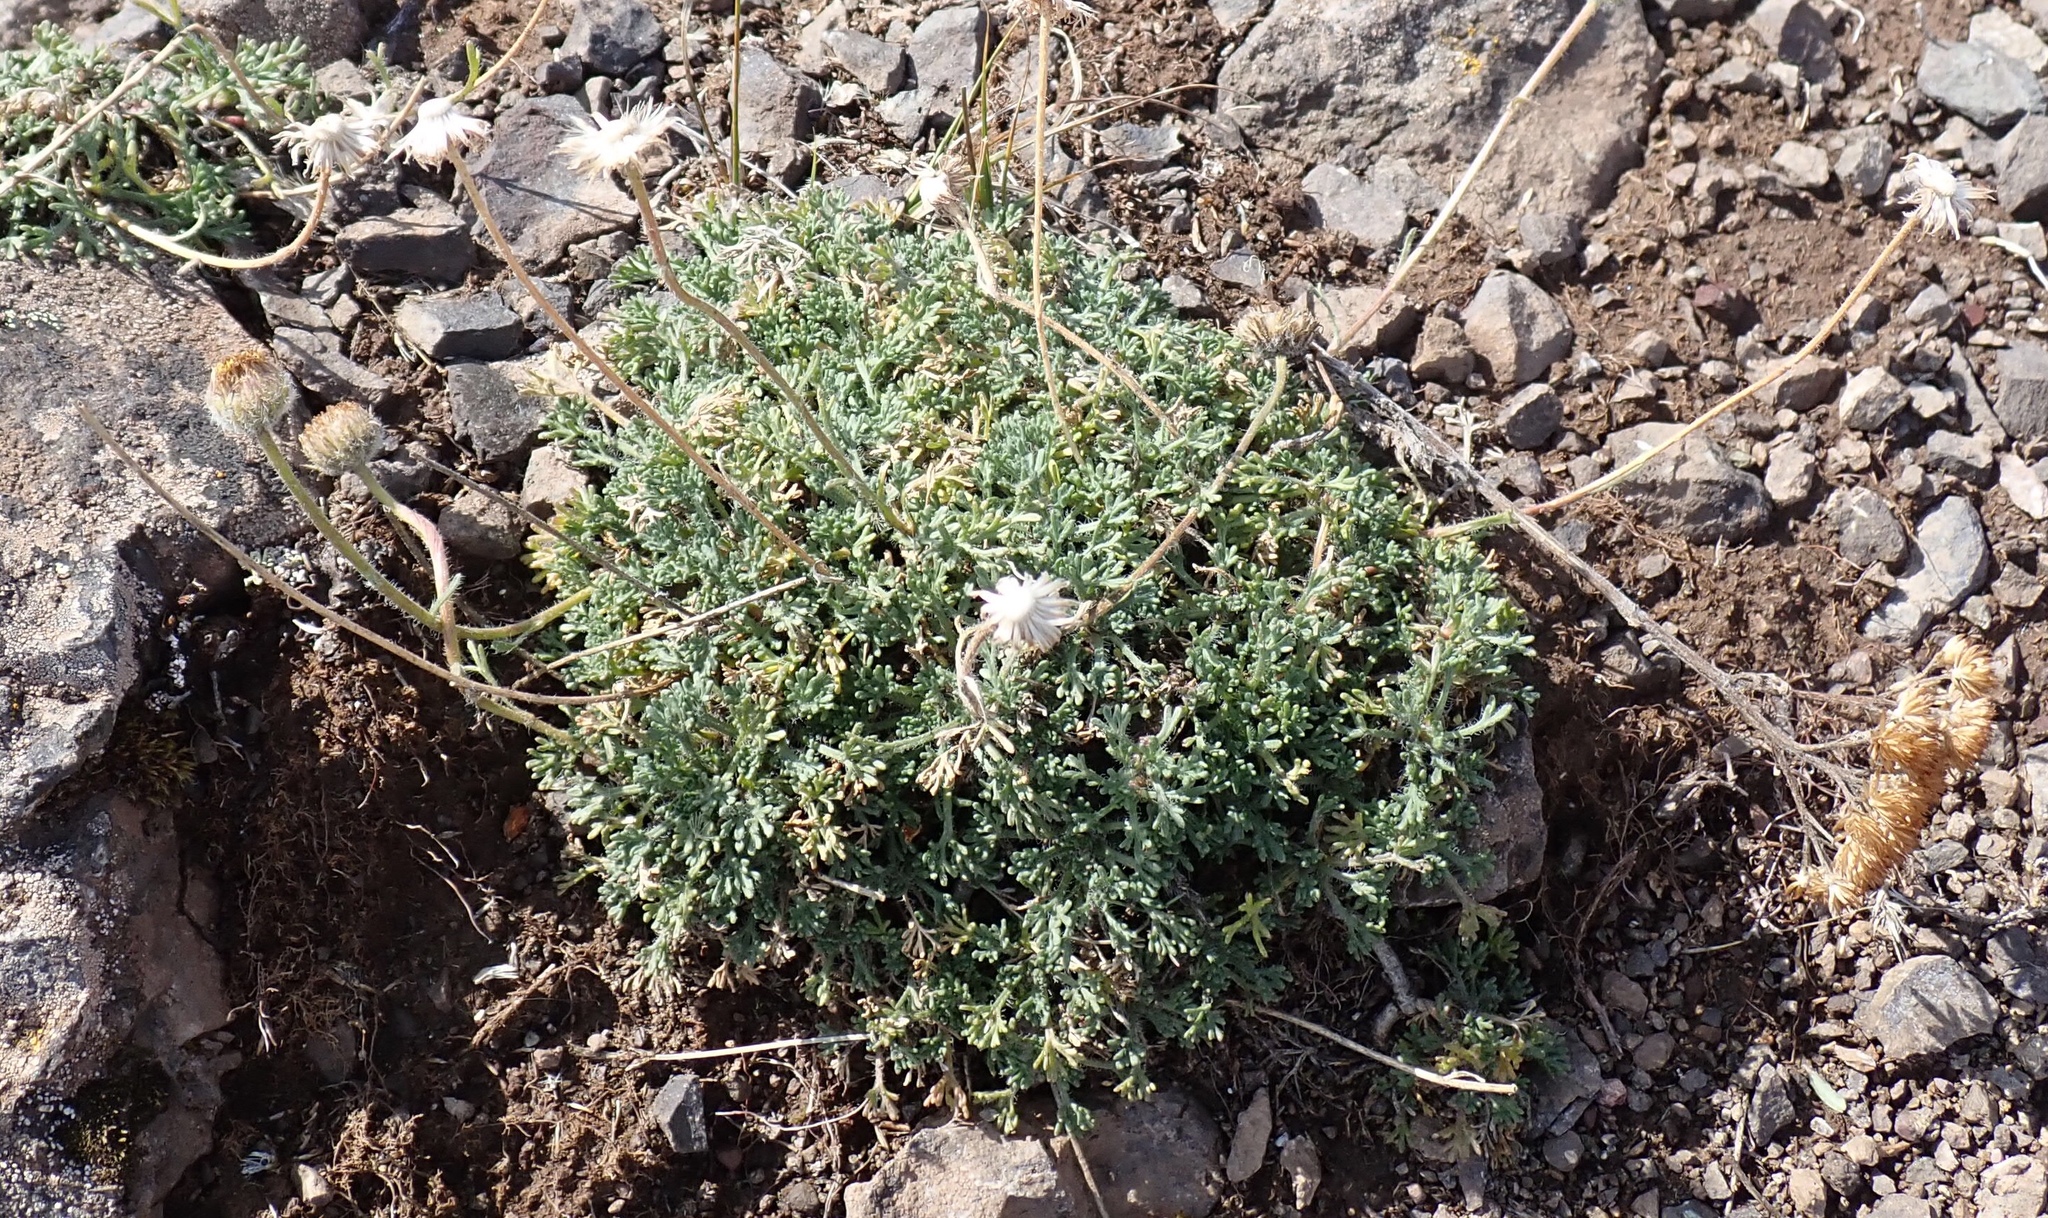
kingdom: Plantae
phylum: Tracheophyta
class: Magnoliopsida
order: Asterales
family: Asteraceae
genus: Erigeron
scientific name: Erigeron compositus
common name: Dwarf mountain fleabane
